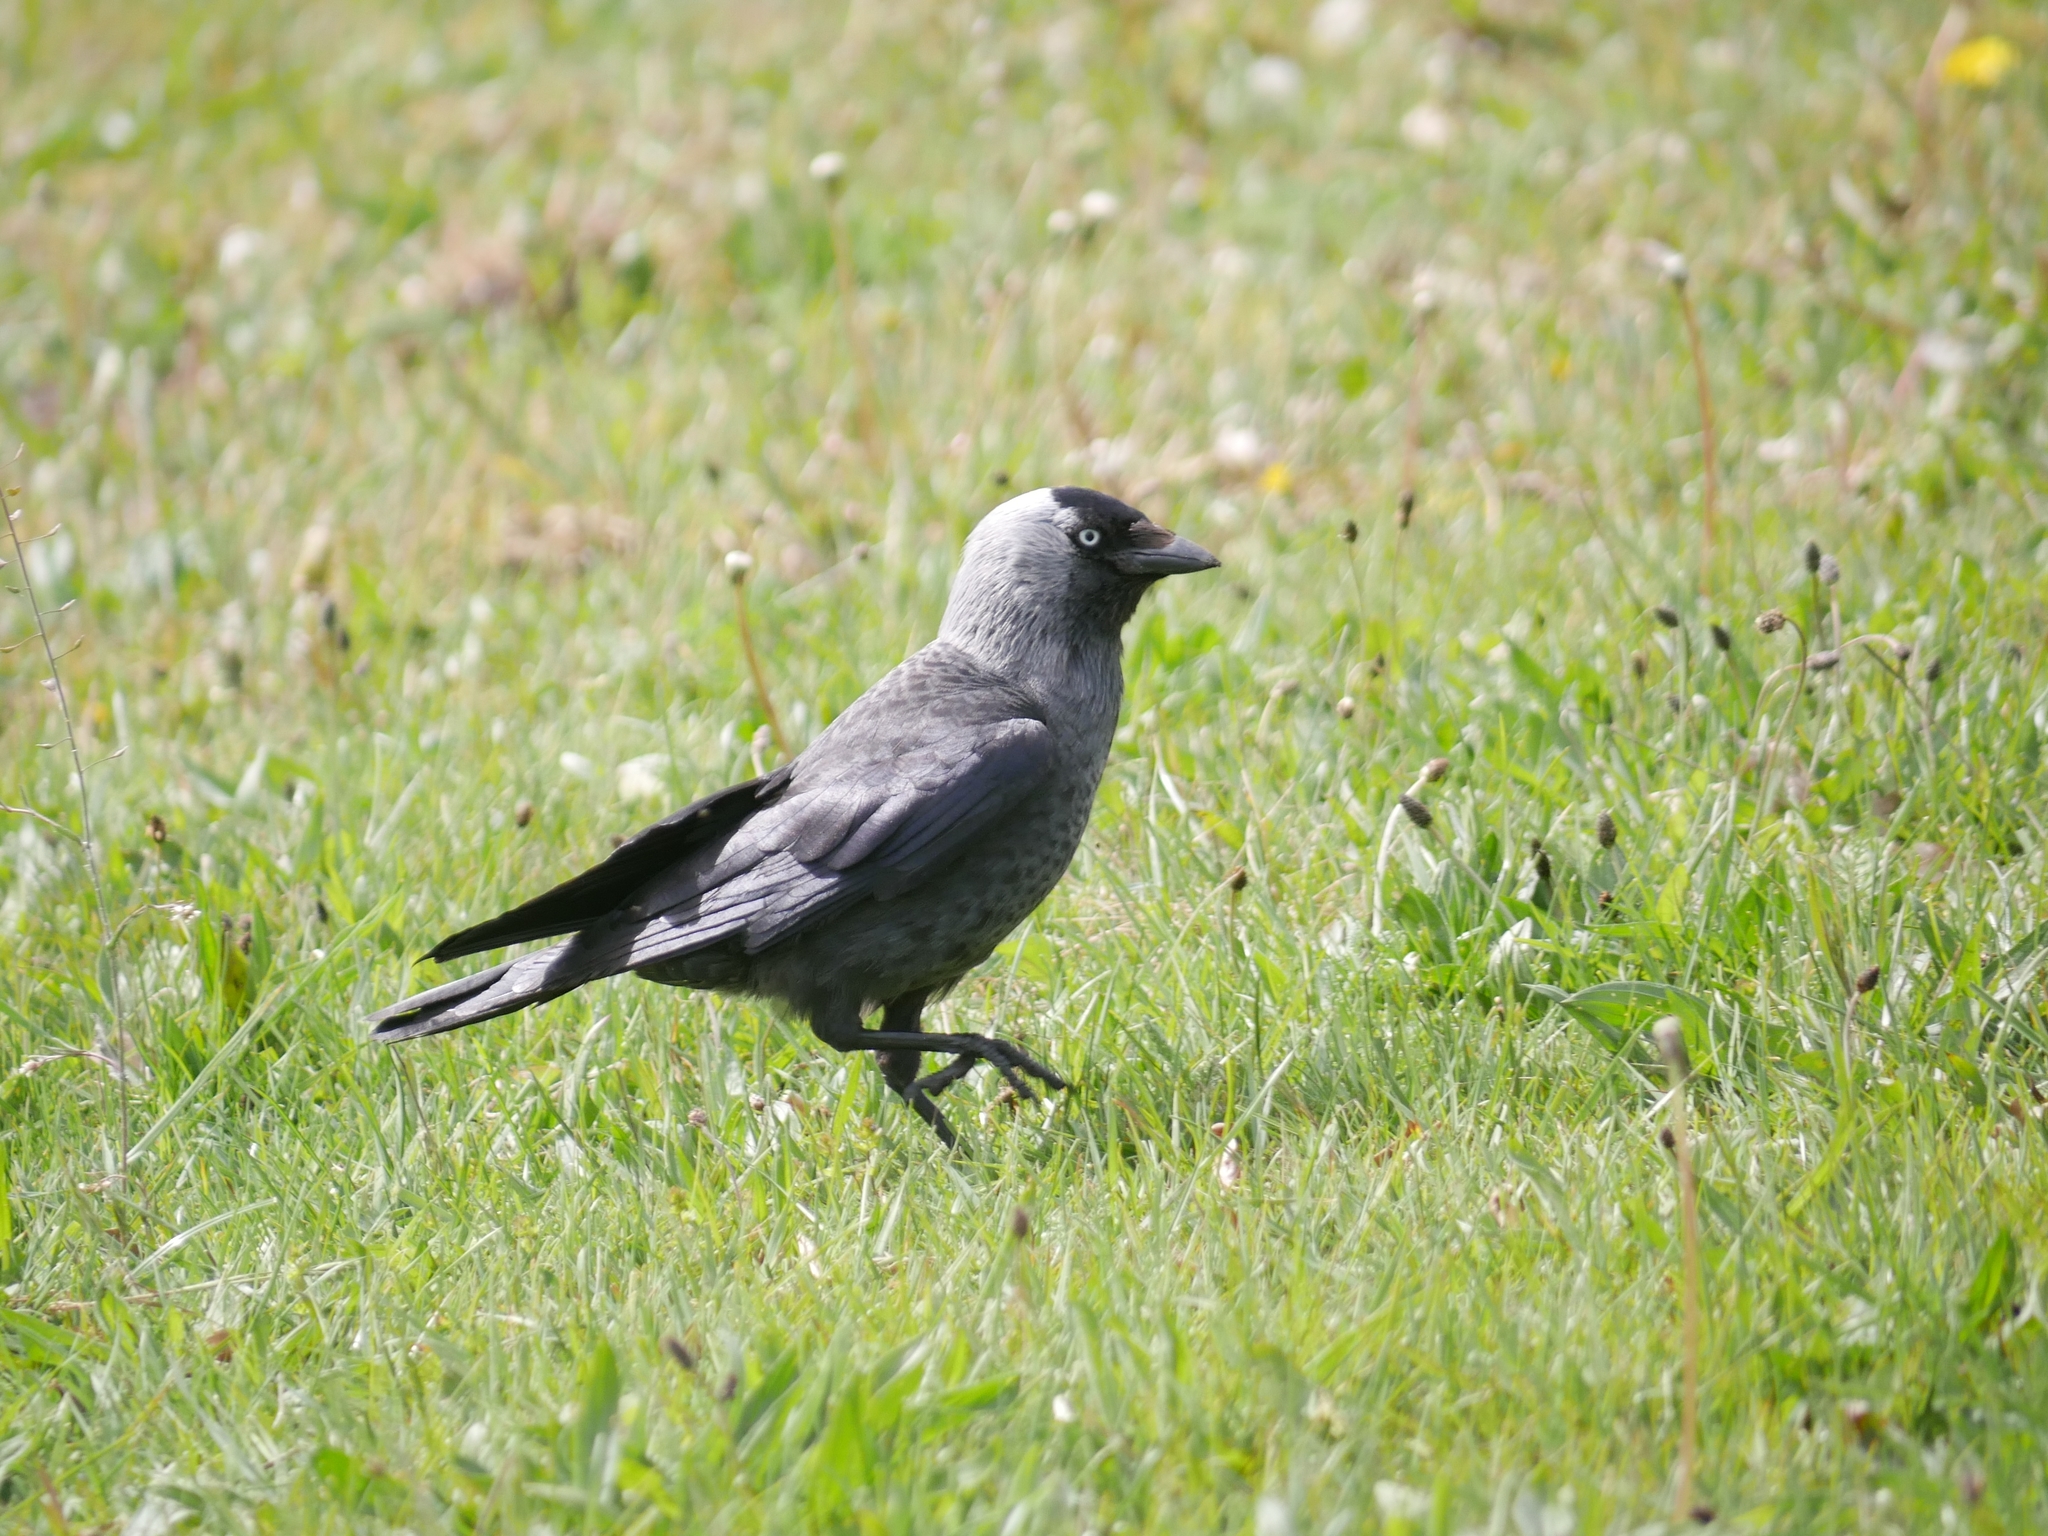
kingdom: Animalia
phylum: Chordata
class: Aves
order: Passeriformes
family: Corvidae
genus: Coloeus
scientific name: Coloeus monedula
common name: Western jackdaw
